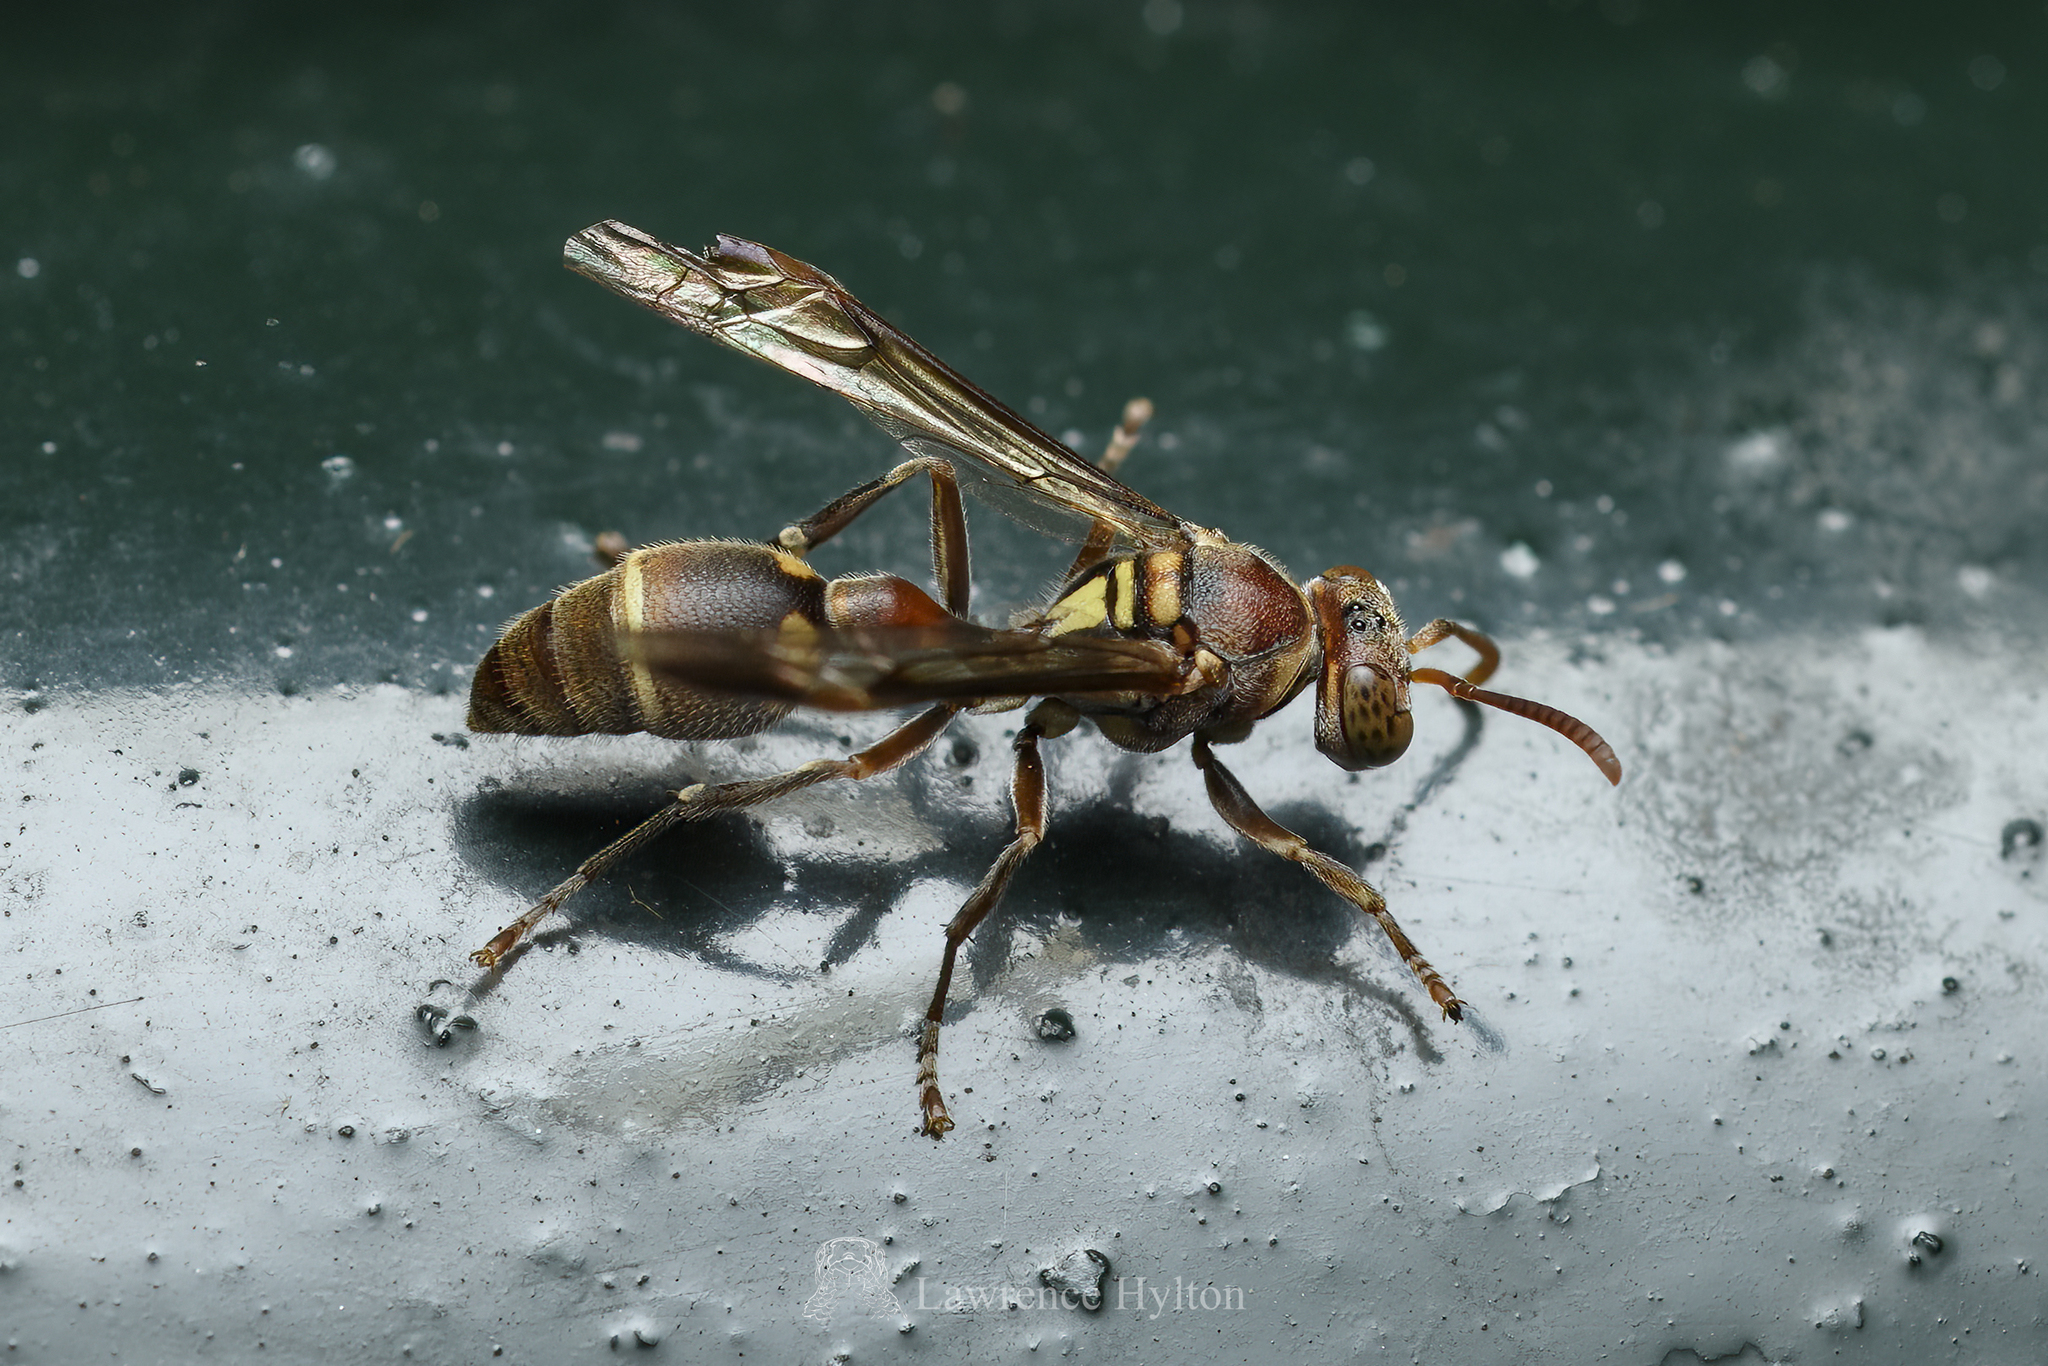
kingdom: Animalia
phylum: Arthropoda
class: Insecta
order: Hymenoptera
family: Vespidae
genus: Ropalidia
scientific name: Ropalidia stigma
